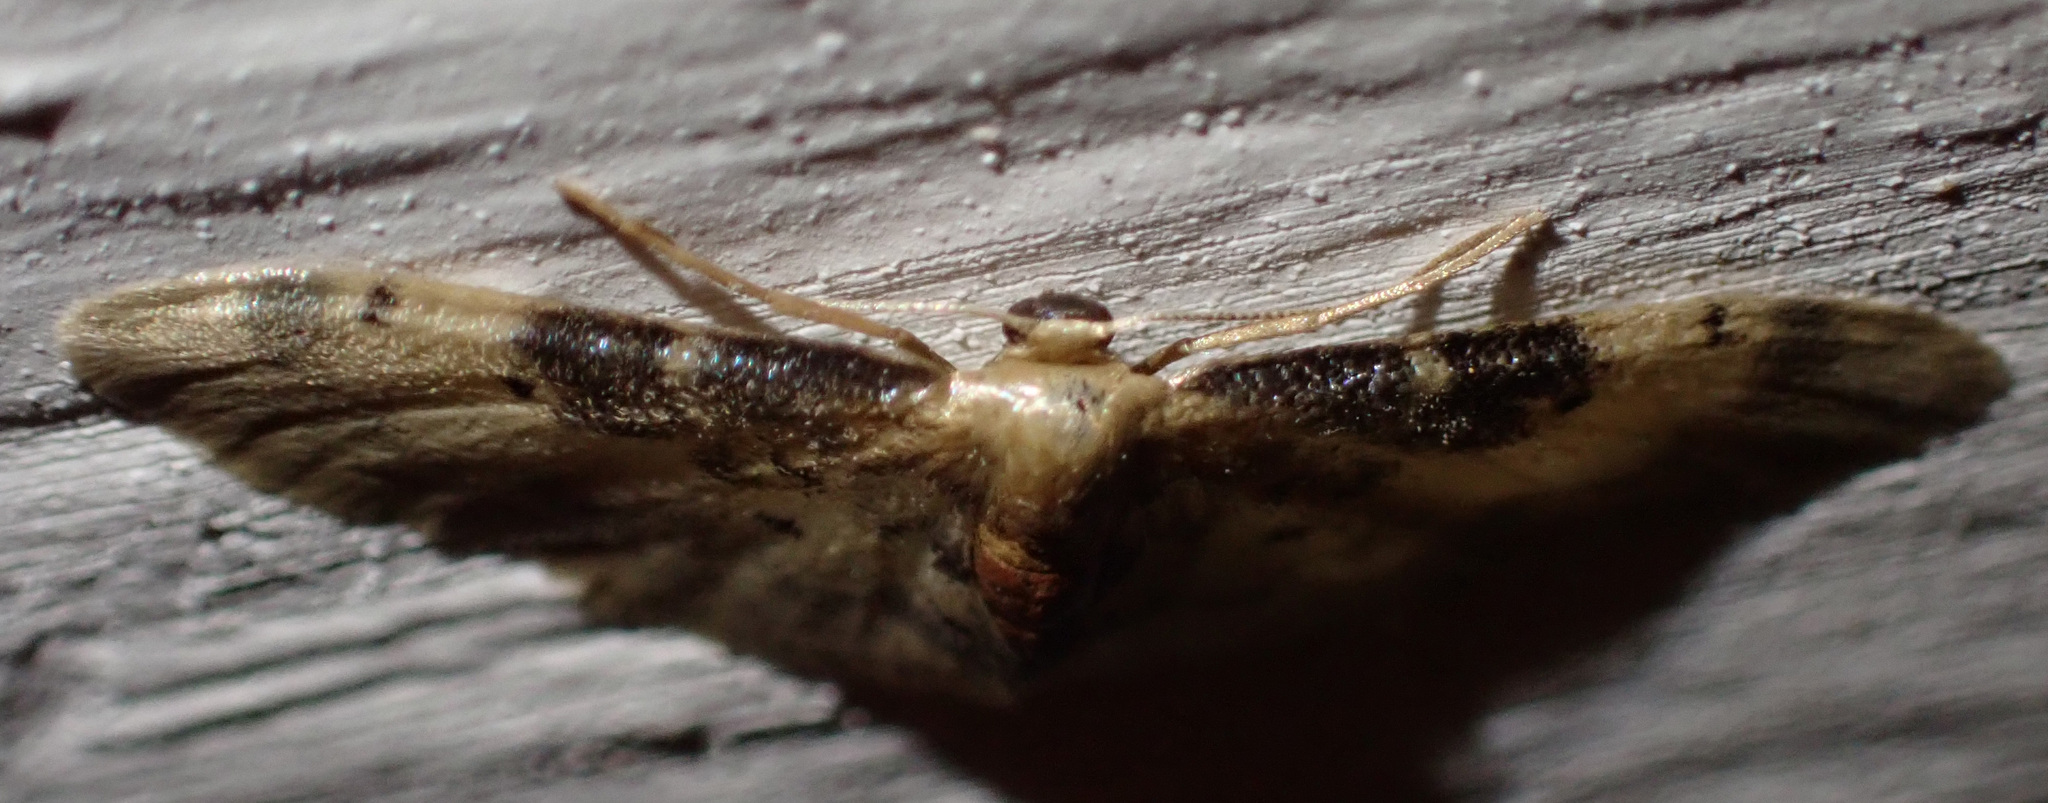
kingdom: Animalia
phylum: Arthropoda
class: Insecta
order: Lepidoptera
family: Geometridae
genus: Idaea
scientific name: Idaea filicata
